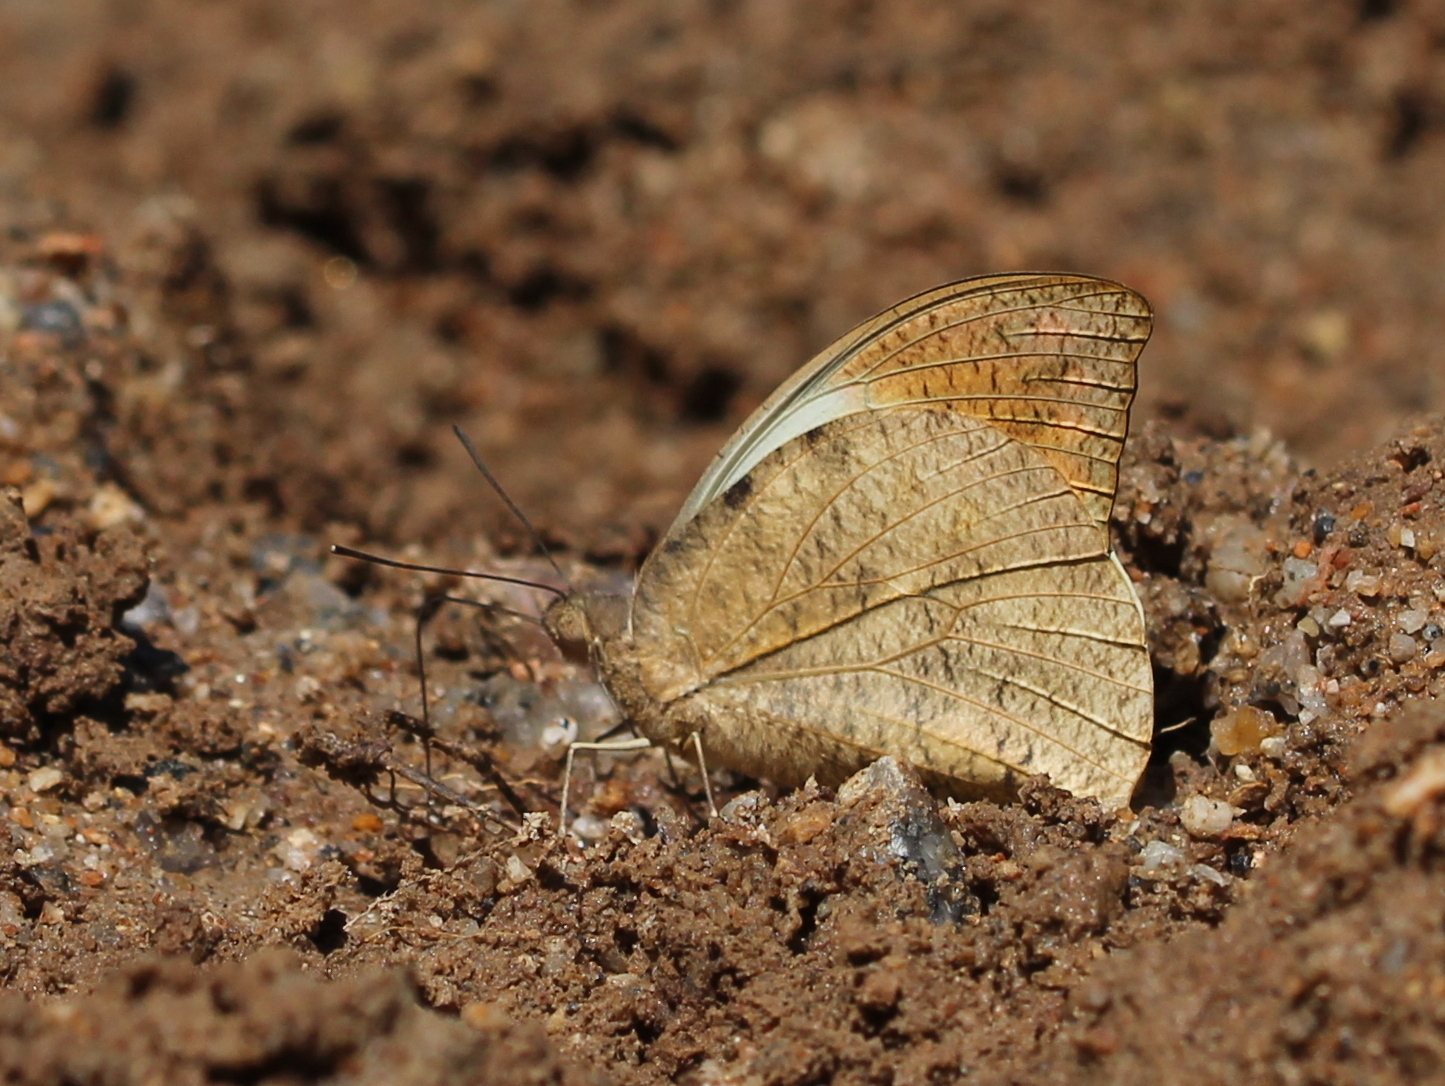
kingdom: Animalia
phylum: Arthropoda
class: Insecta
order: Lepidoptera
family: Pieridae
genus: Hebomoia
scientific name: Hebomoia glaucippe
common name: Great orange tip
